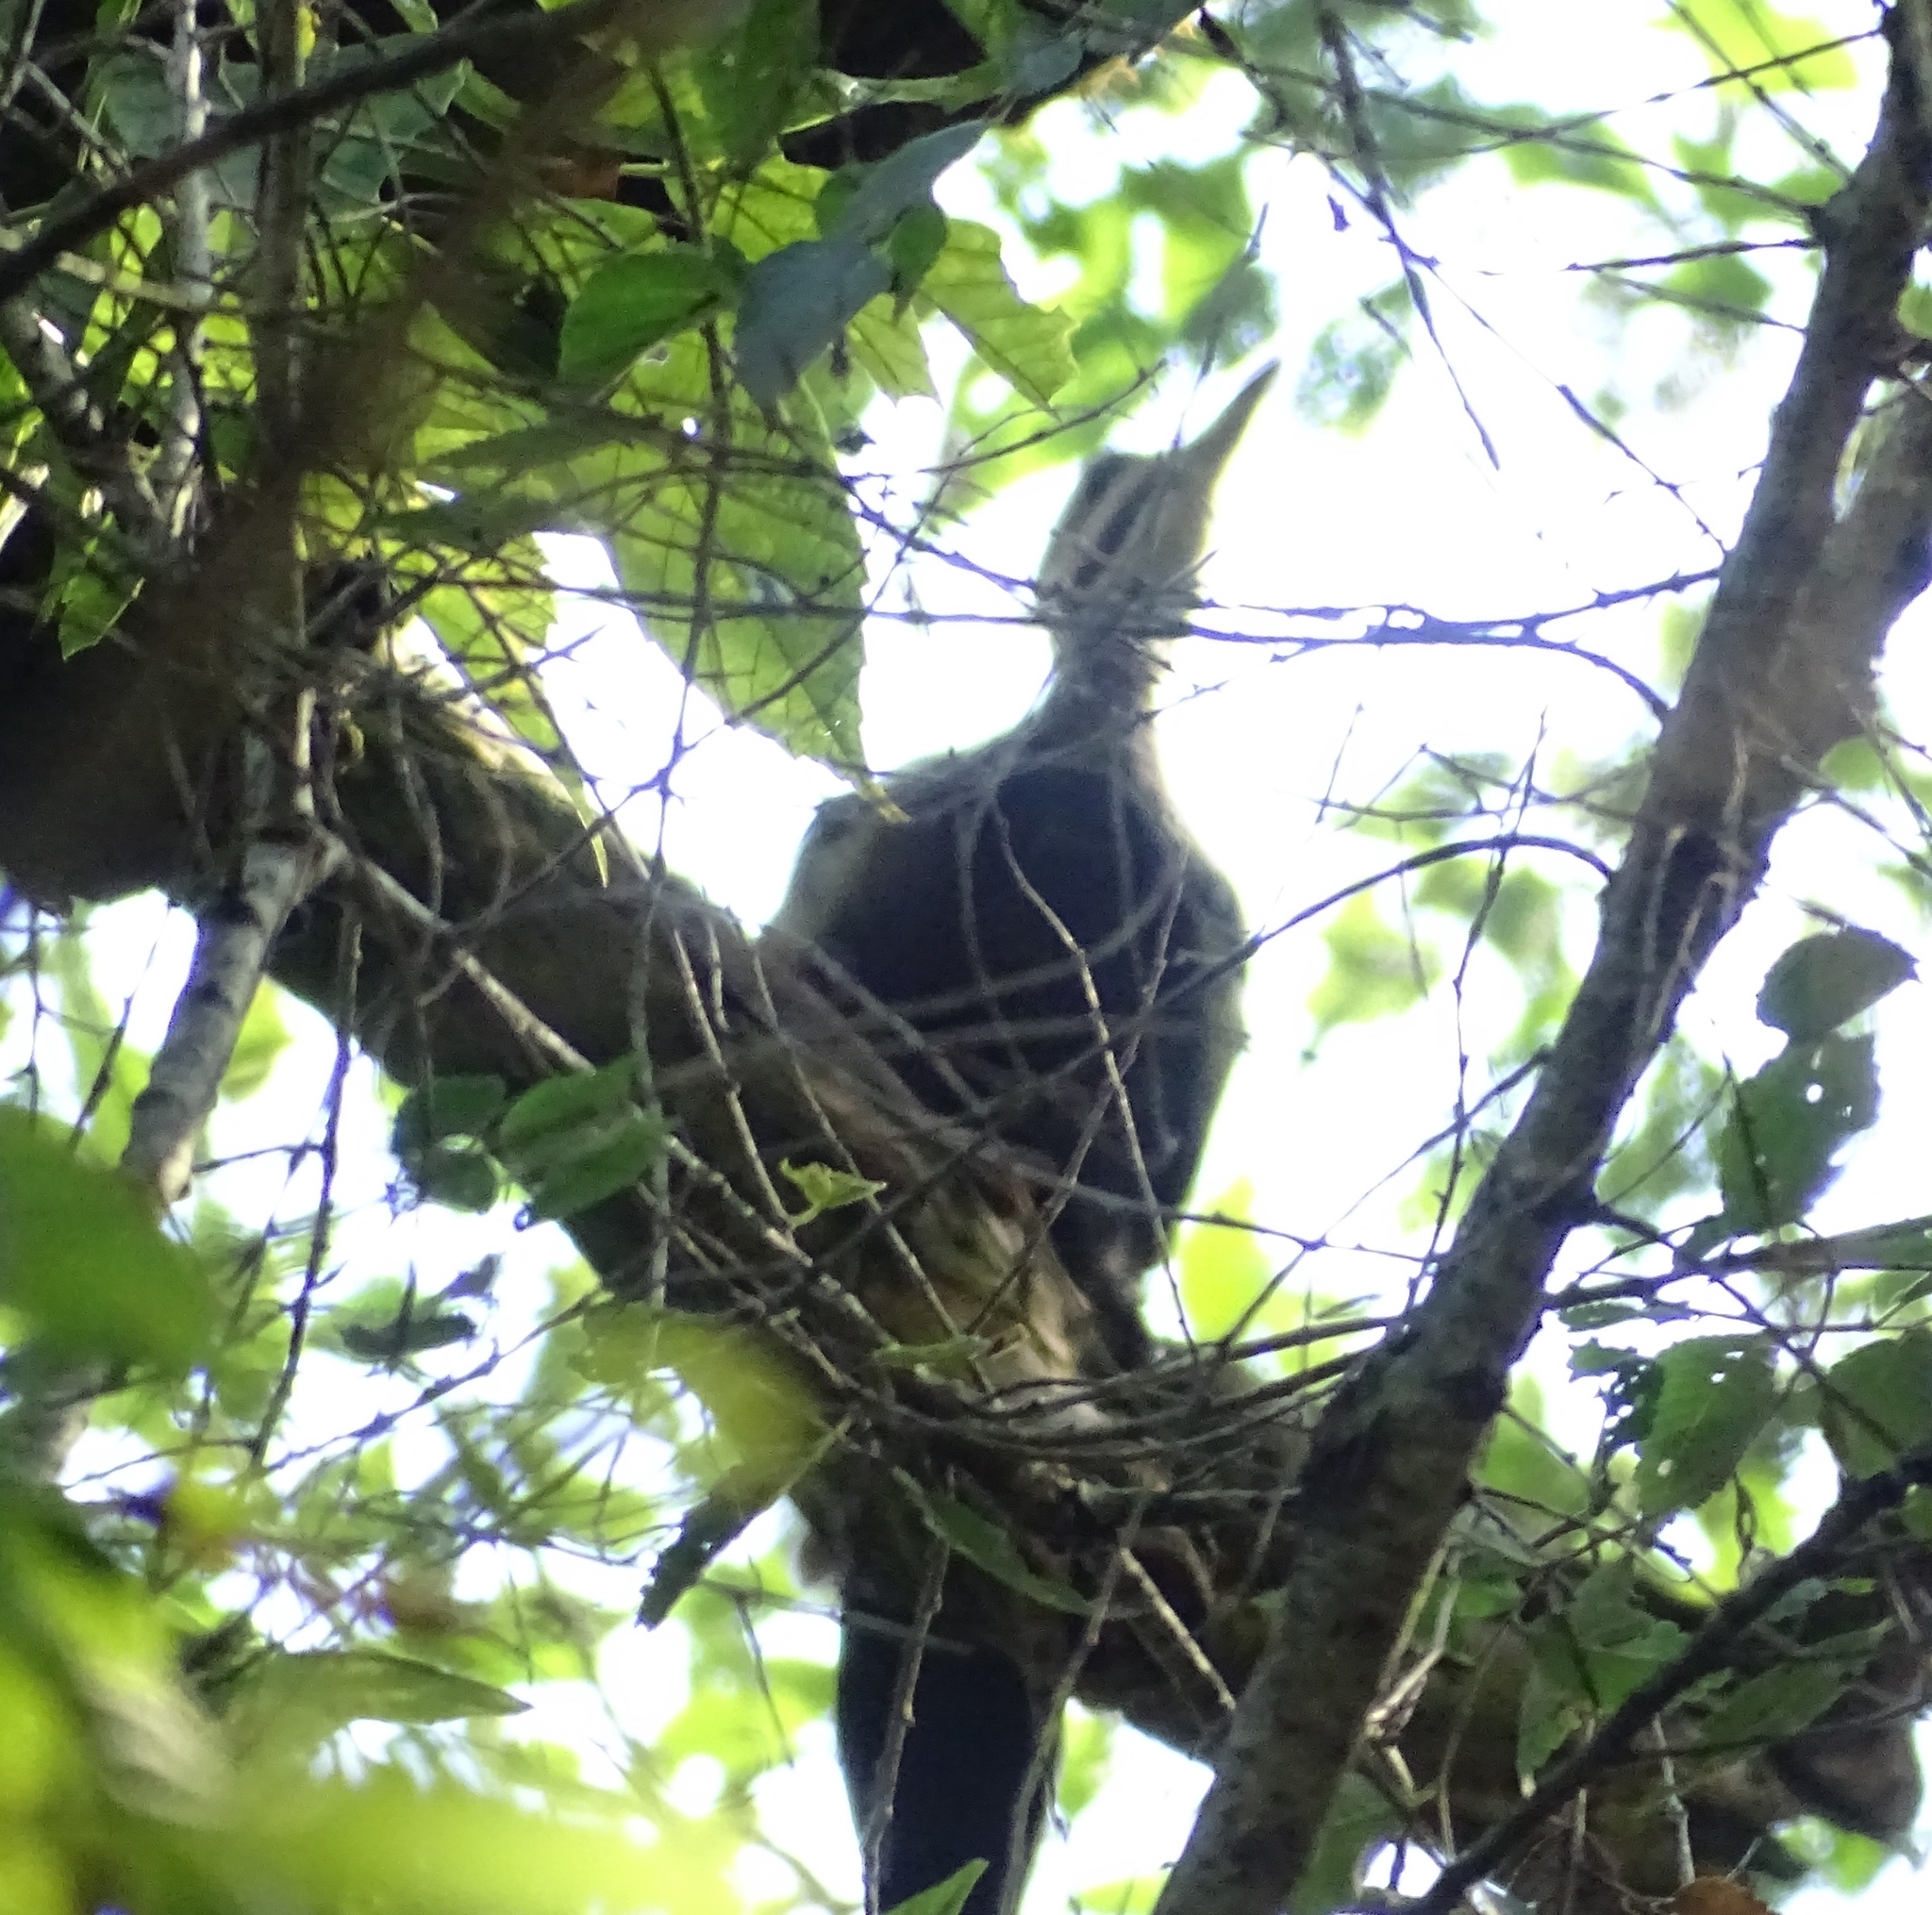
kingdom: Animalia
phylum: Chordata
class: Aves
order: Piciformes
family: Picidae
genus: Dryocopus
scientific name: Dryocopus pileatus
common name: Pileated woodpecker
